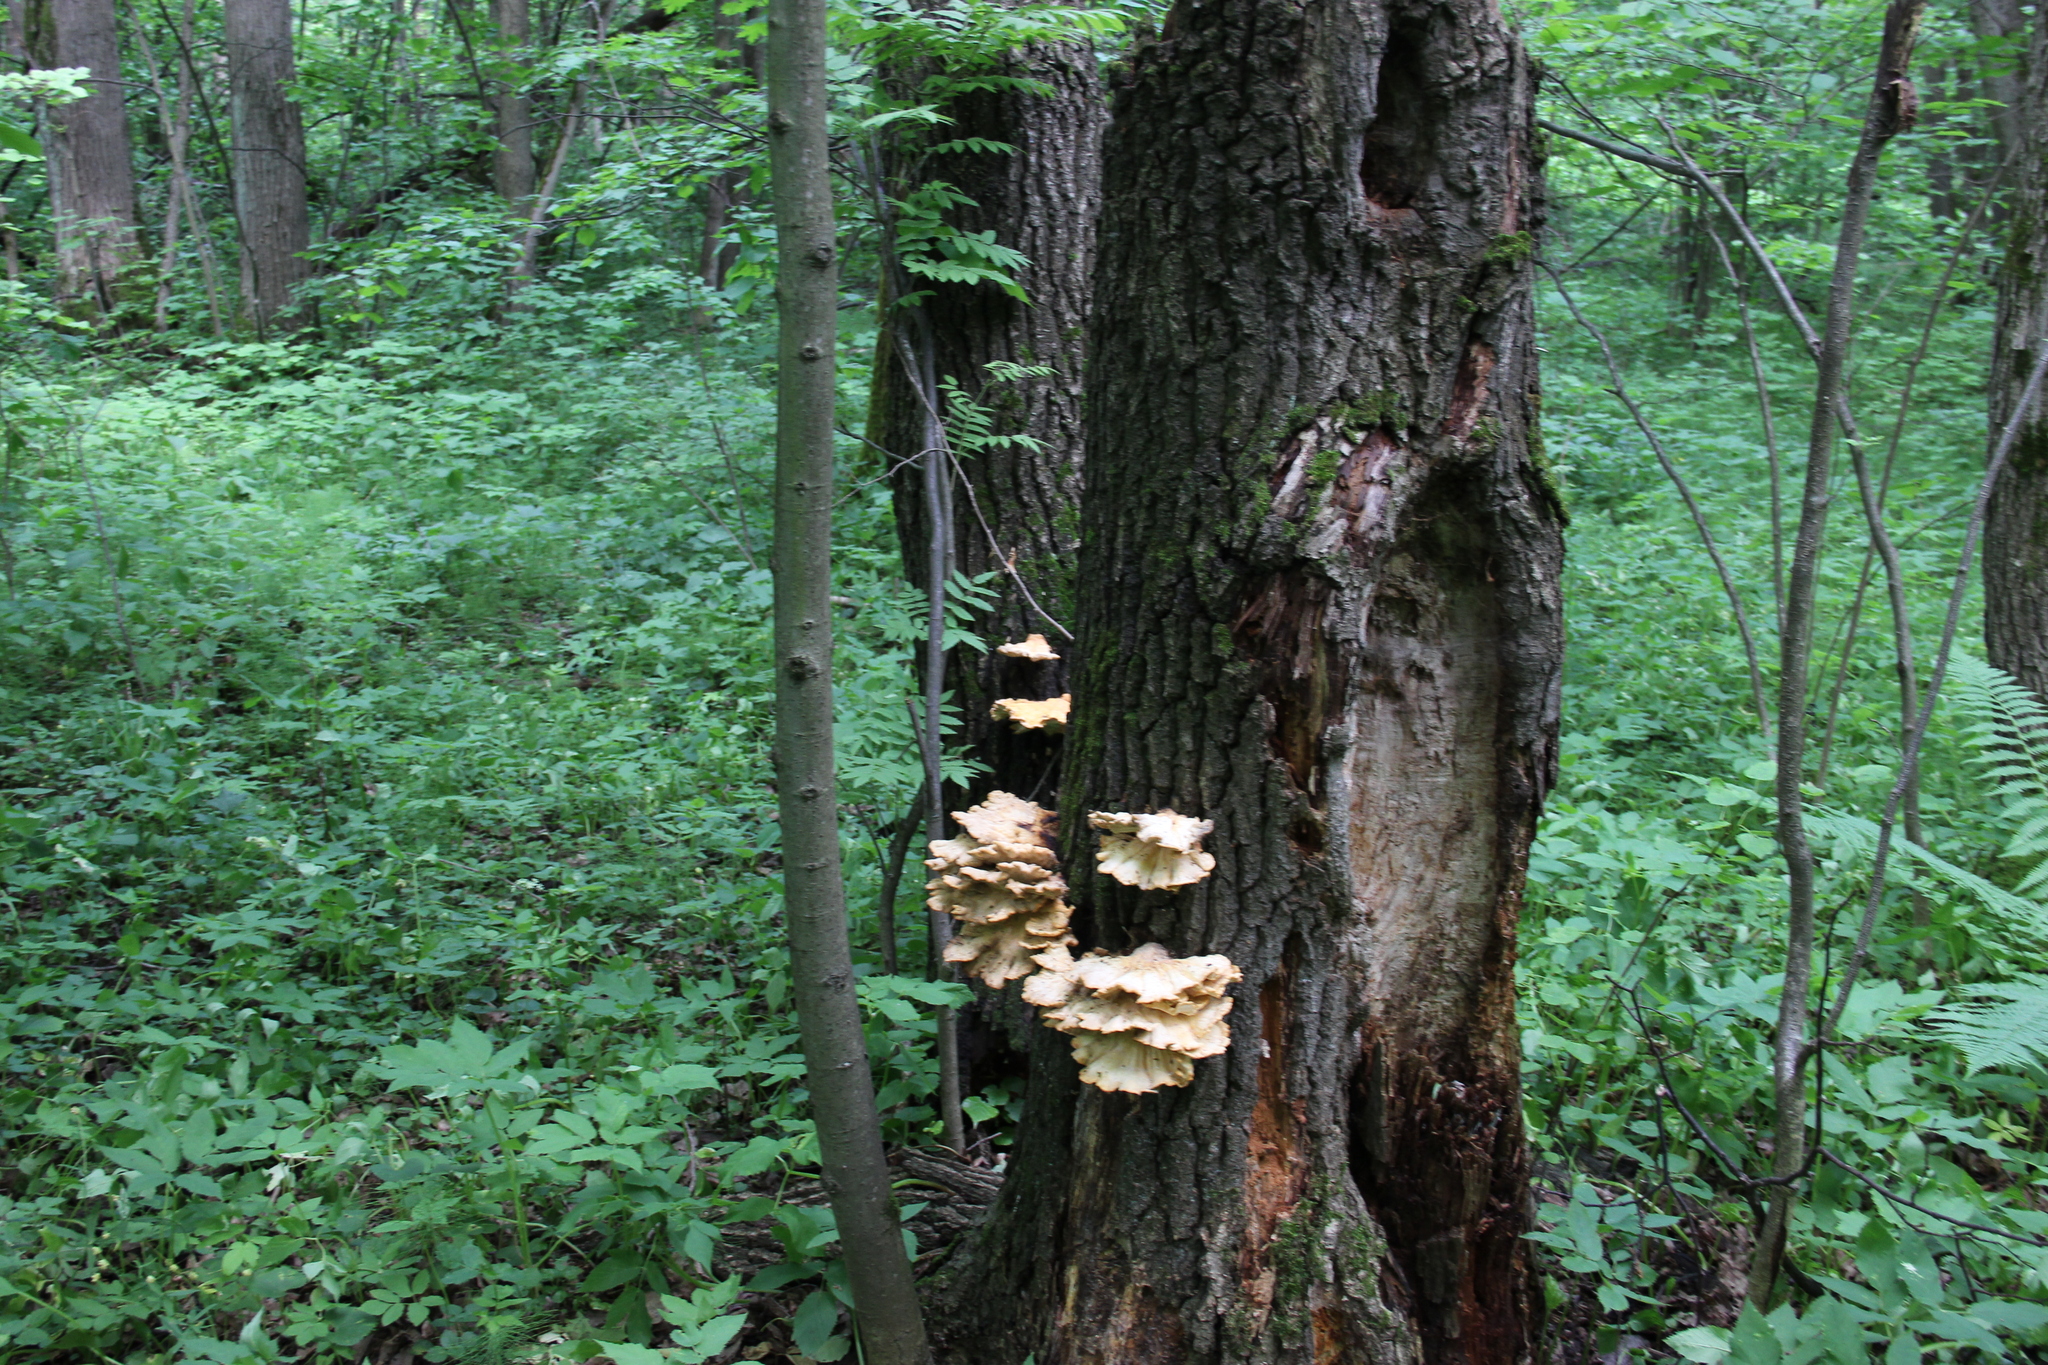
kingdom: Fungi
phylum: Basidiomycota
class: Agaricomycetes
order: Polyporales
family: Laetiporaceae
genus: Laetiporus
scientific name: Laetiporus sulphureus
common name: Chicken of the woods
